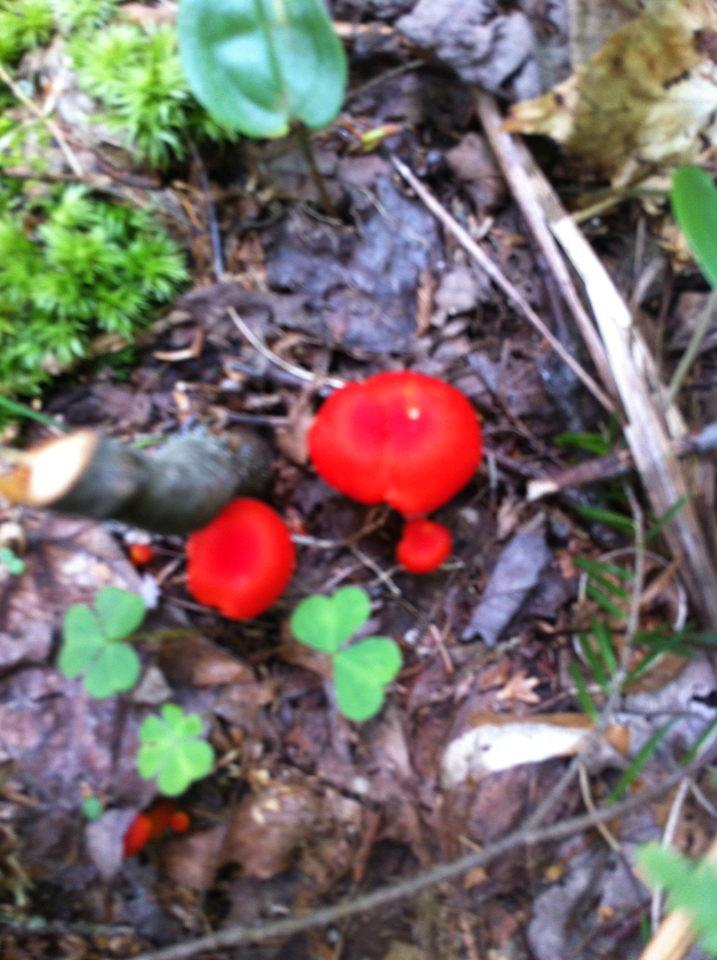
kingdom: Fungi
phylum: Basidiomycota
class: Agaricomycetes
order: Agaricales
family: Hygrophoraceae
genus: Hygrocybe
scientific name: Hygrocybe
